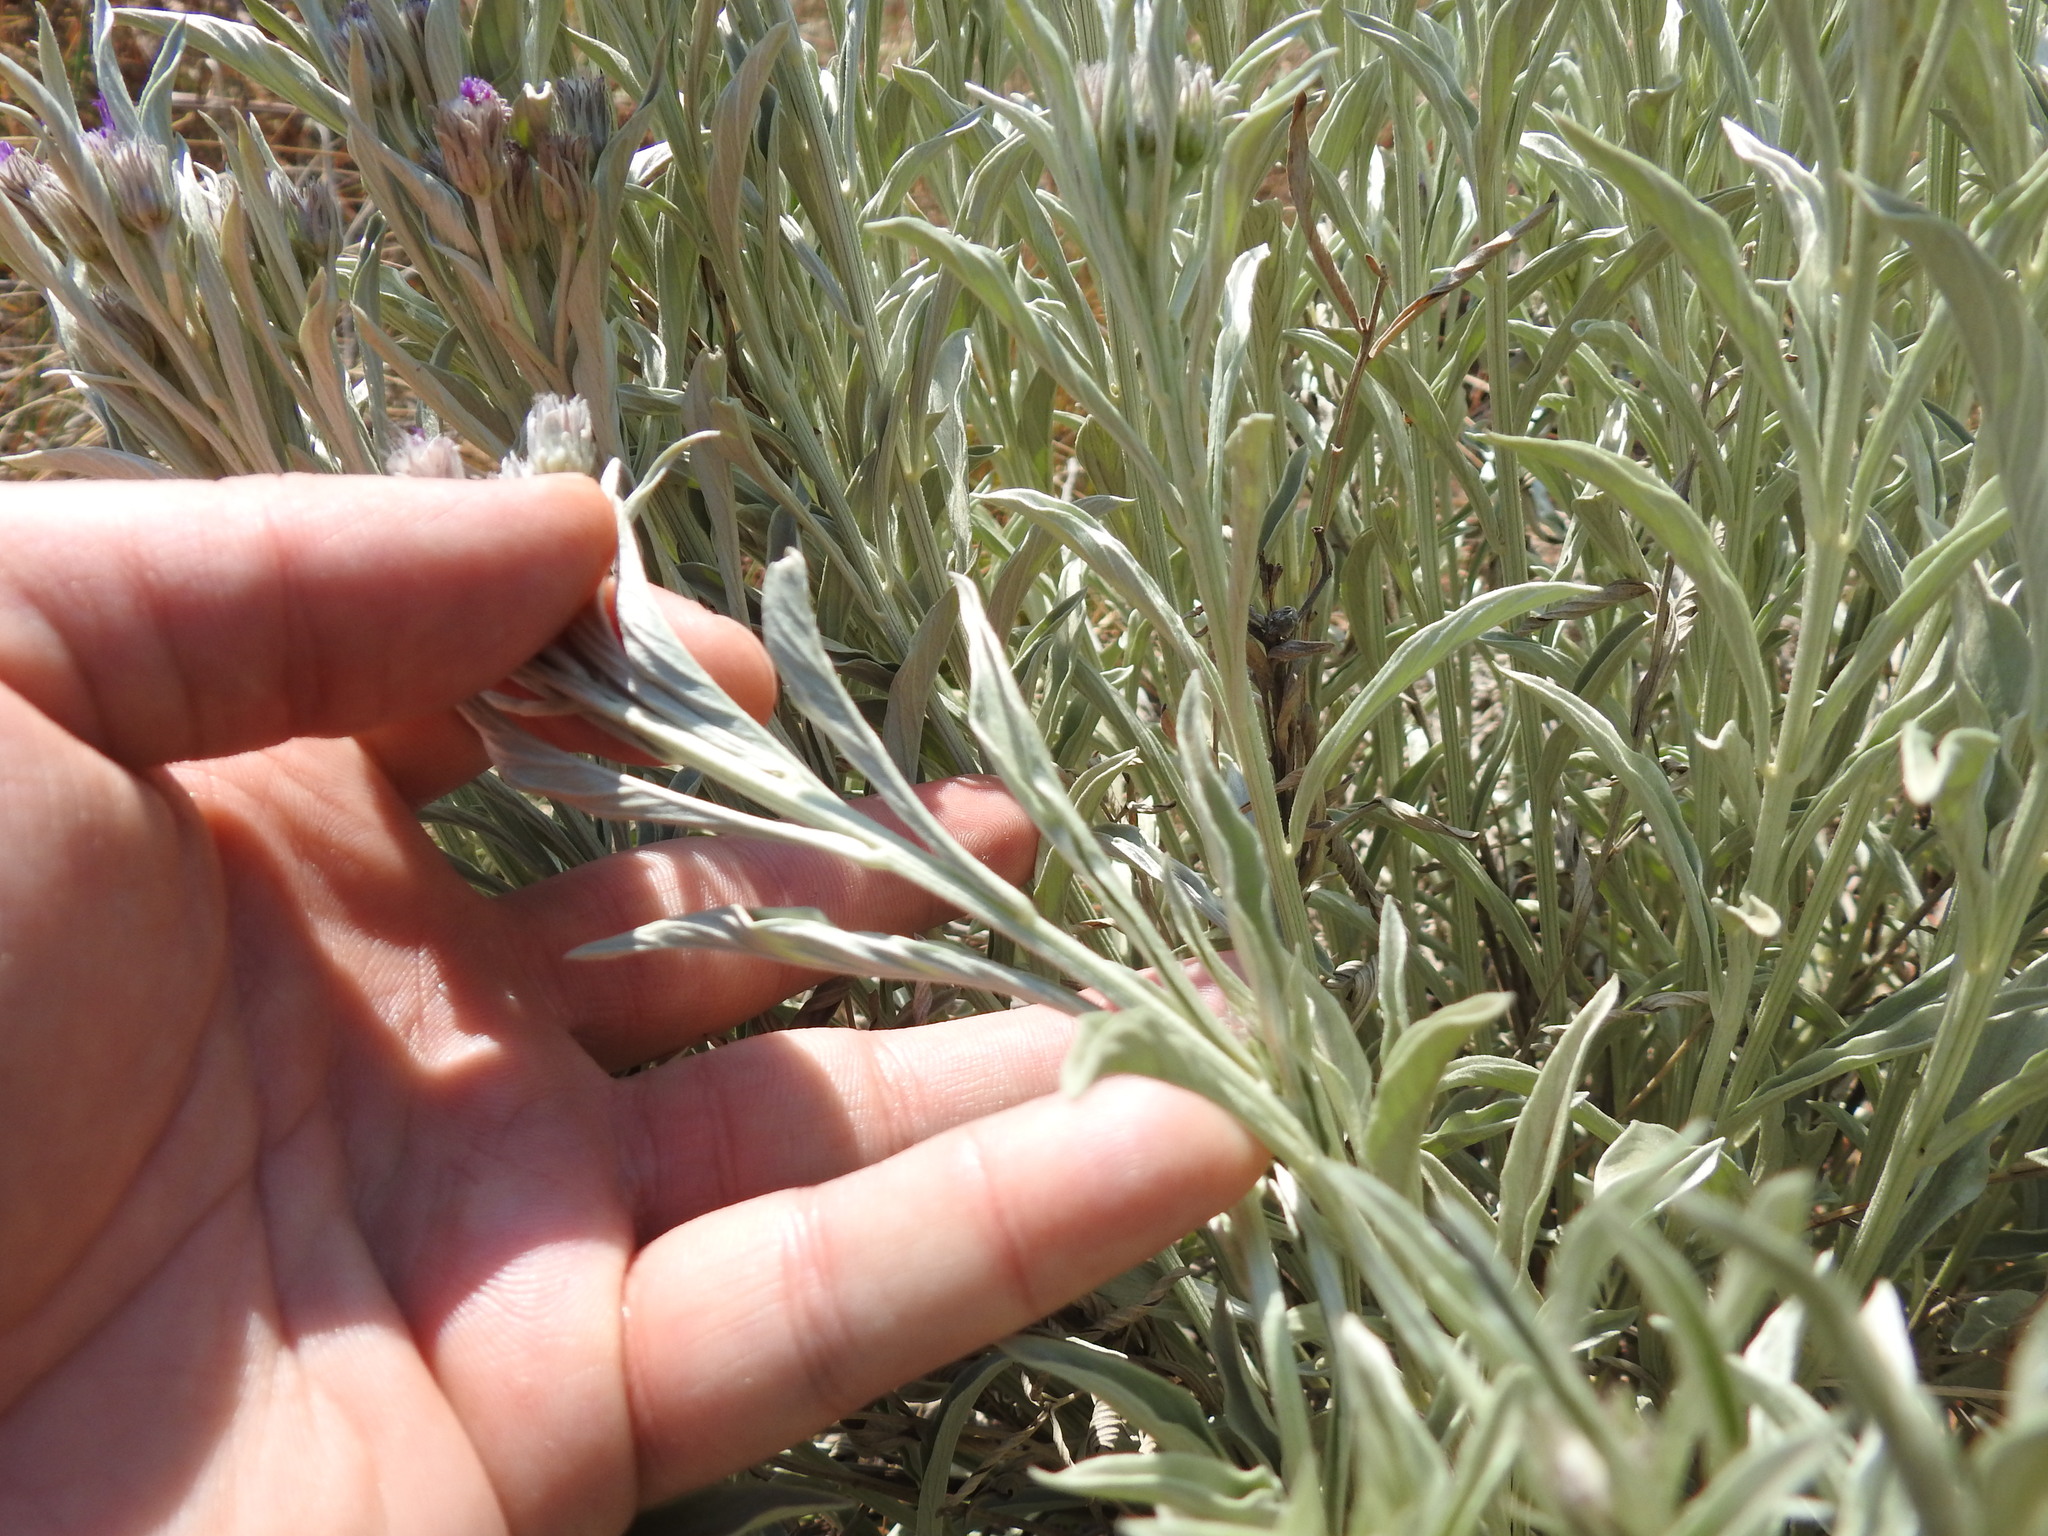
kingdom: Plantae
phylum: Tracheophyta
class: Magnoliopsida
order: Asterales
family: Asteraceae
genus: Hilliardiella
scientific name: Hilliardiella aristata
